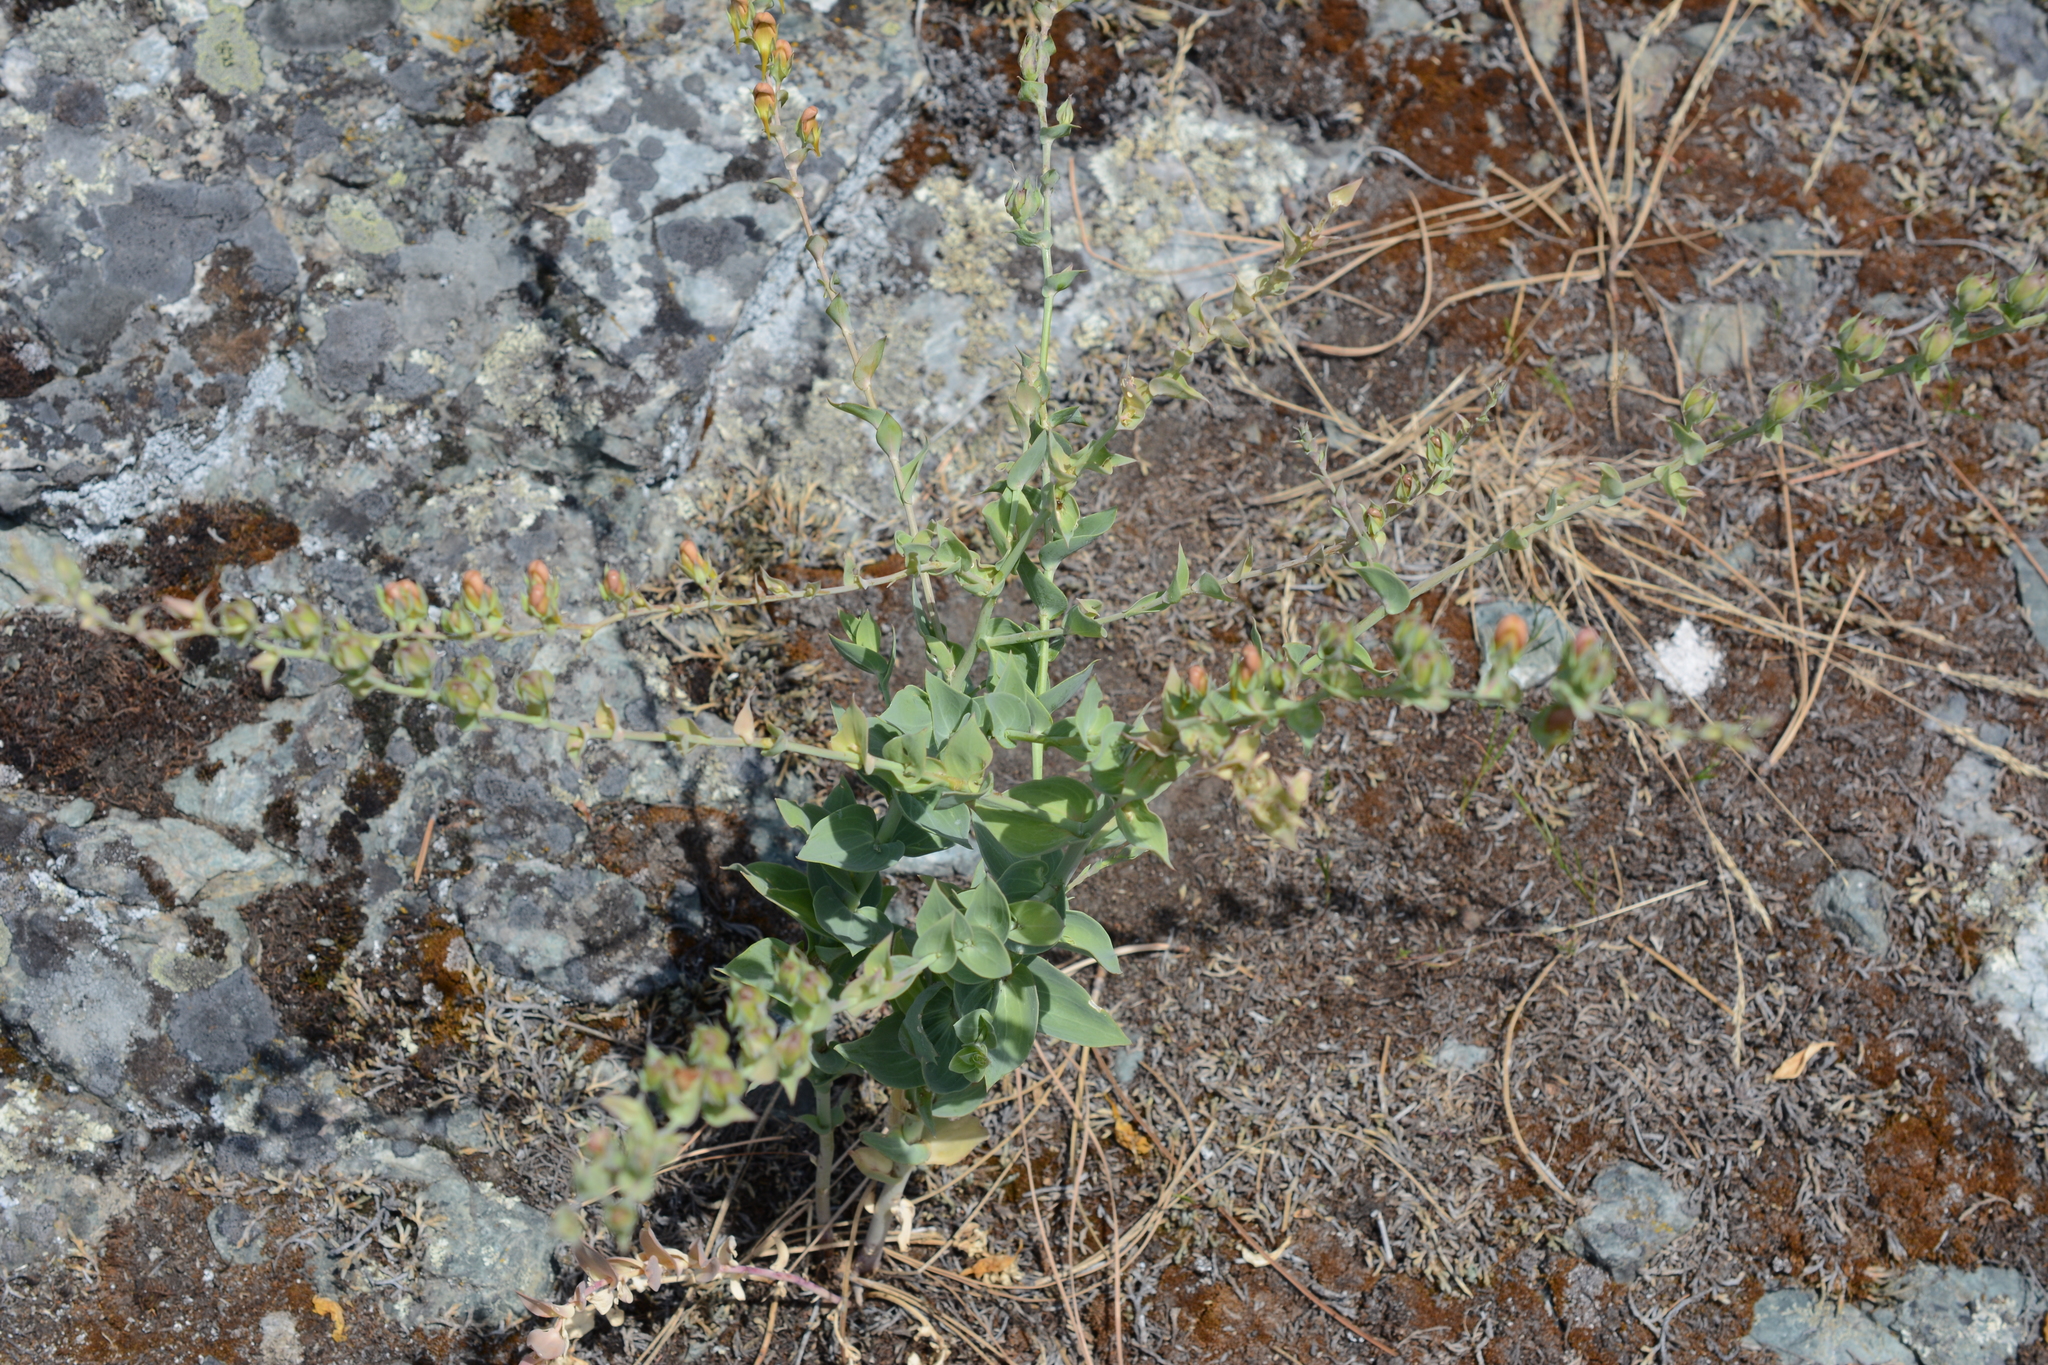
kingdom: Plantae
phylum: Tracheophyta
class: Magnoliopsida
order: Lamiales
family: Plantaginaceae
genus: Linaria
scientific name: Linaria dalmatica
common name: Dalmatian toadflax
